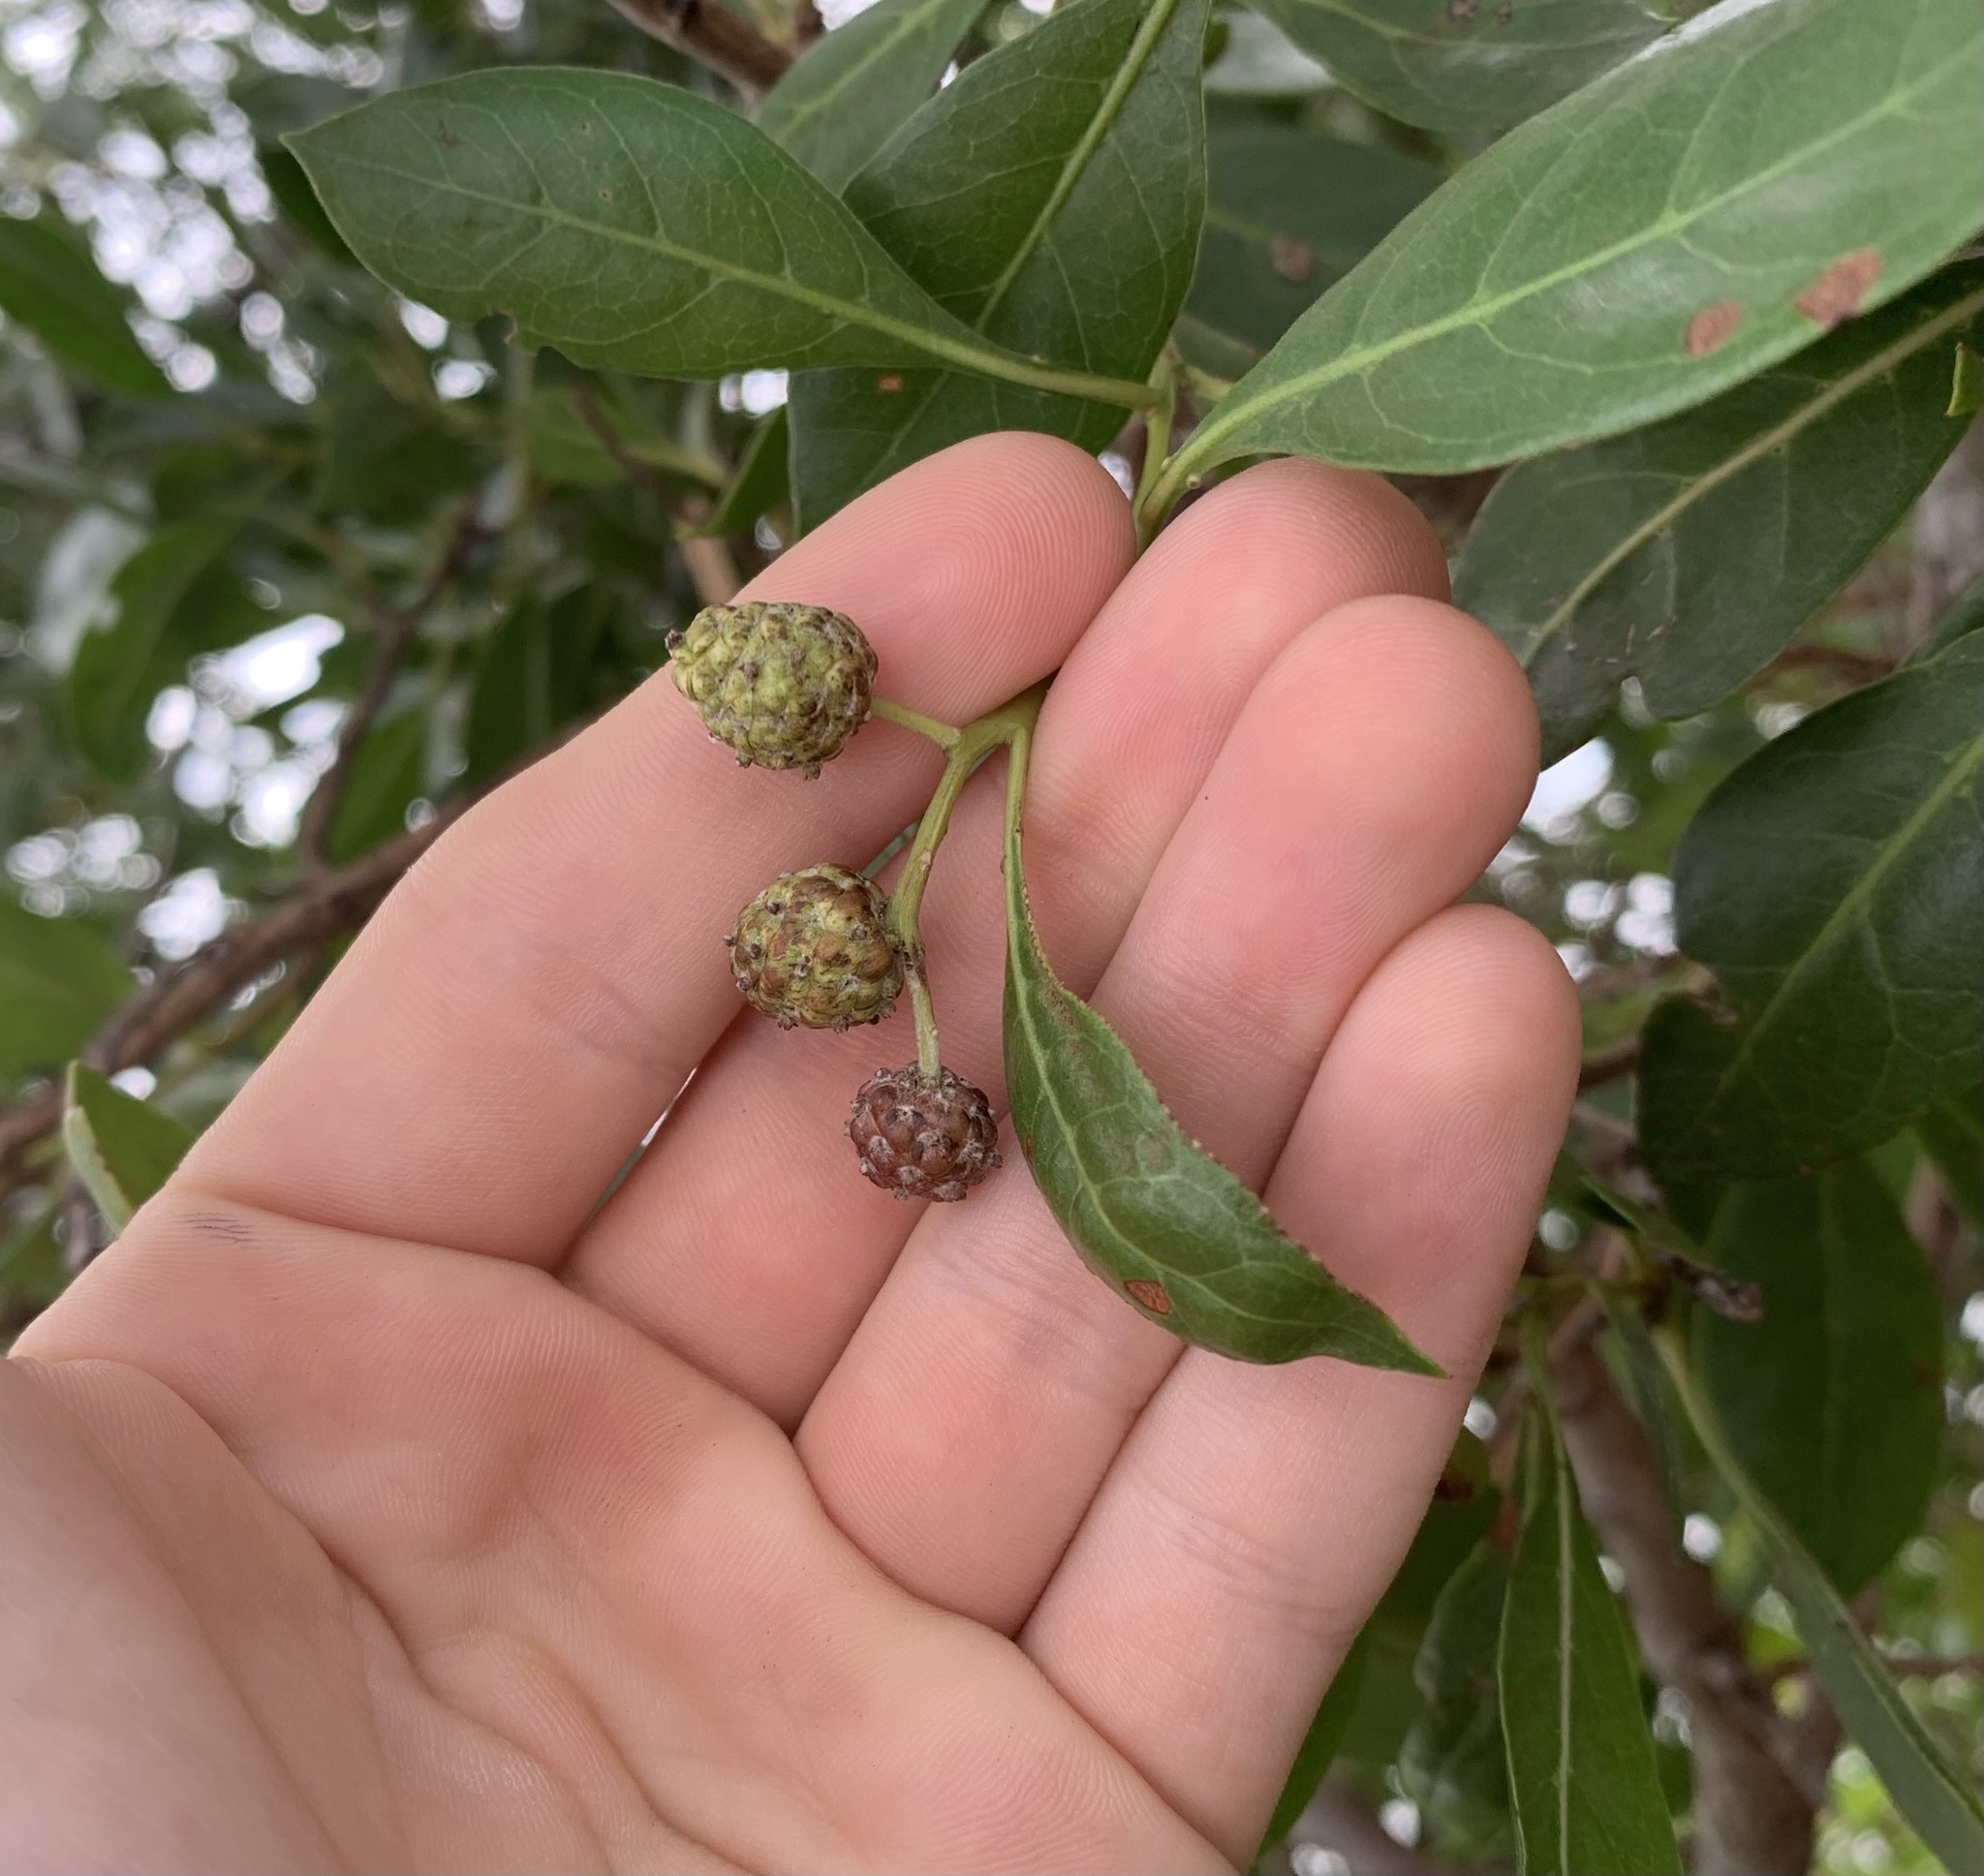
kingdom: Plantae
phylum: Tracheophyta
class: Magnoliopsida
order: Myrtales
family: Combretaceae
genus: Conocarpus
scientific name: Conocarpus erectus
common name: Button mangrove
